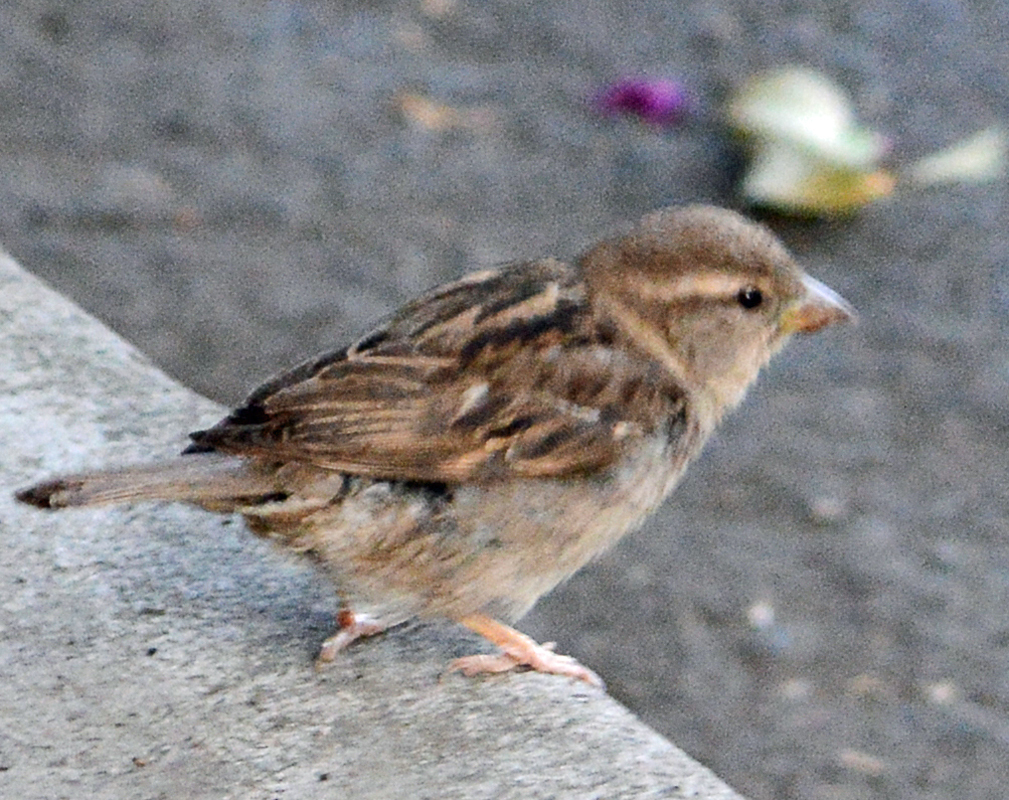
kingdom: Animalia
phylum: Chordata
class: Aves
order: Passeriformes
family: Passeridae
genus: Passer
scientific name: Passer domesticus
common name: House sparrow
